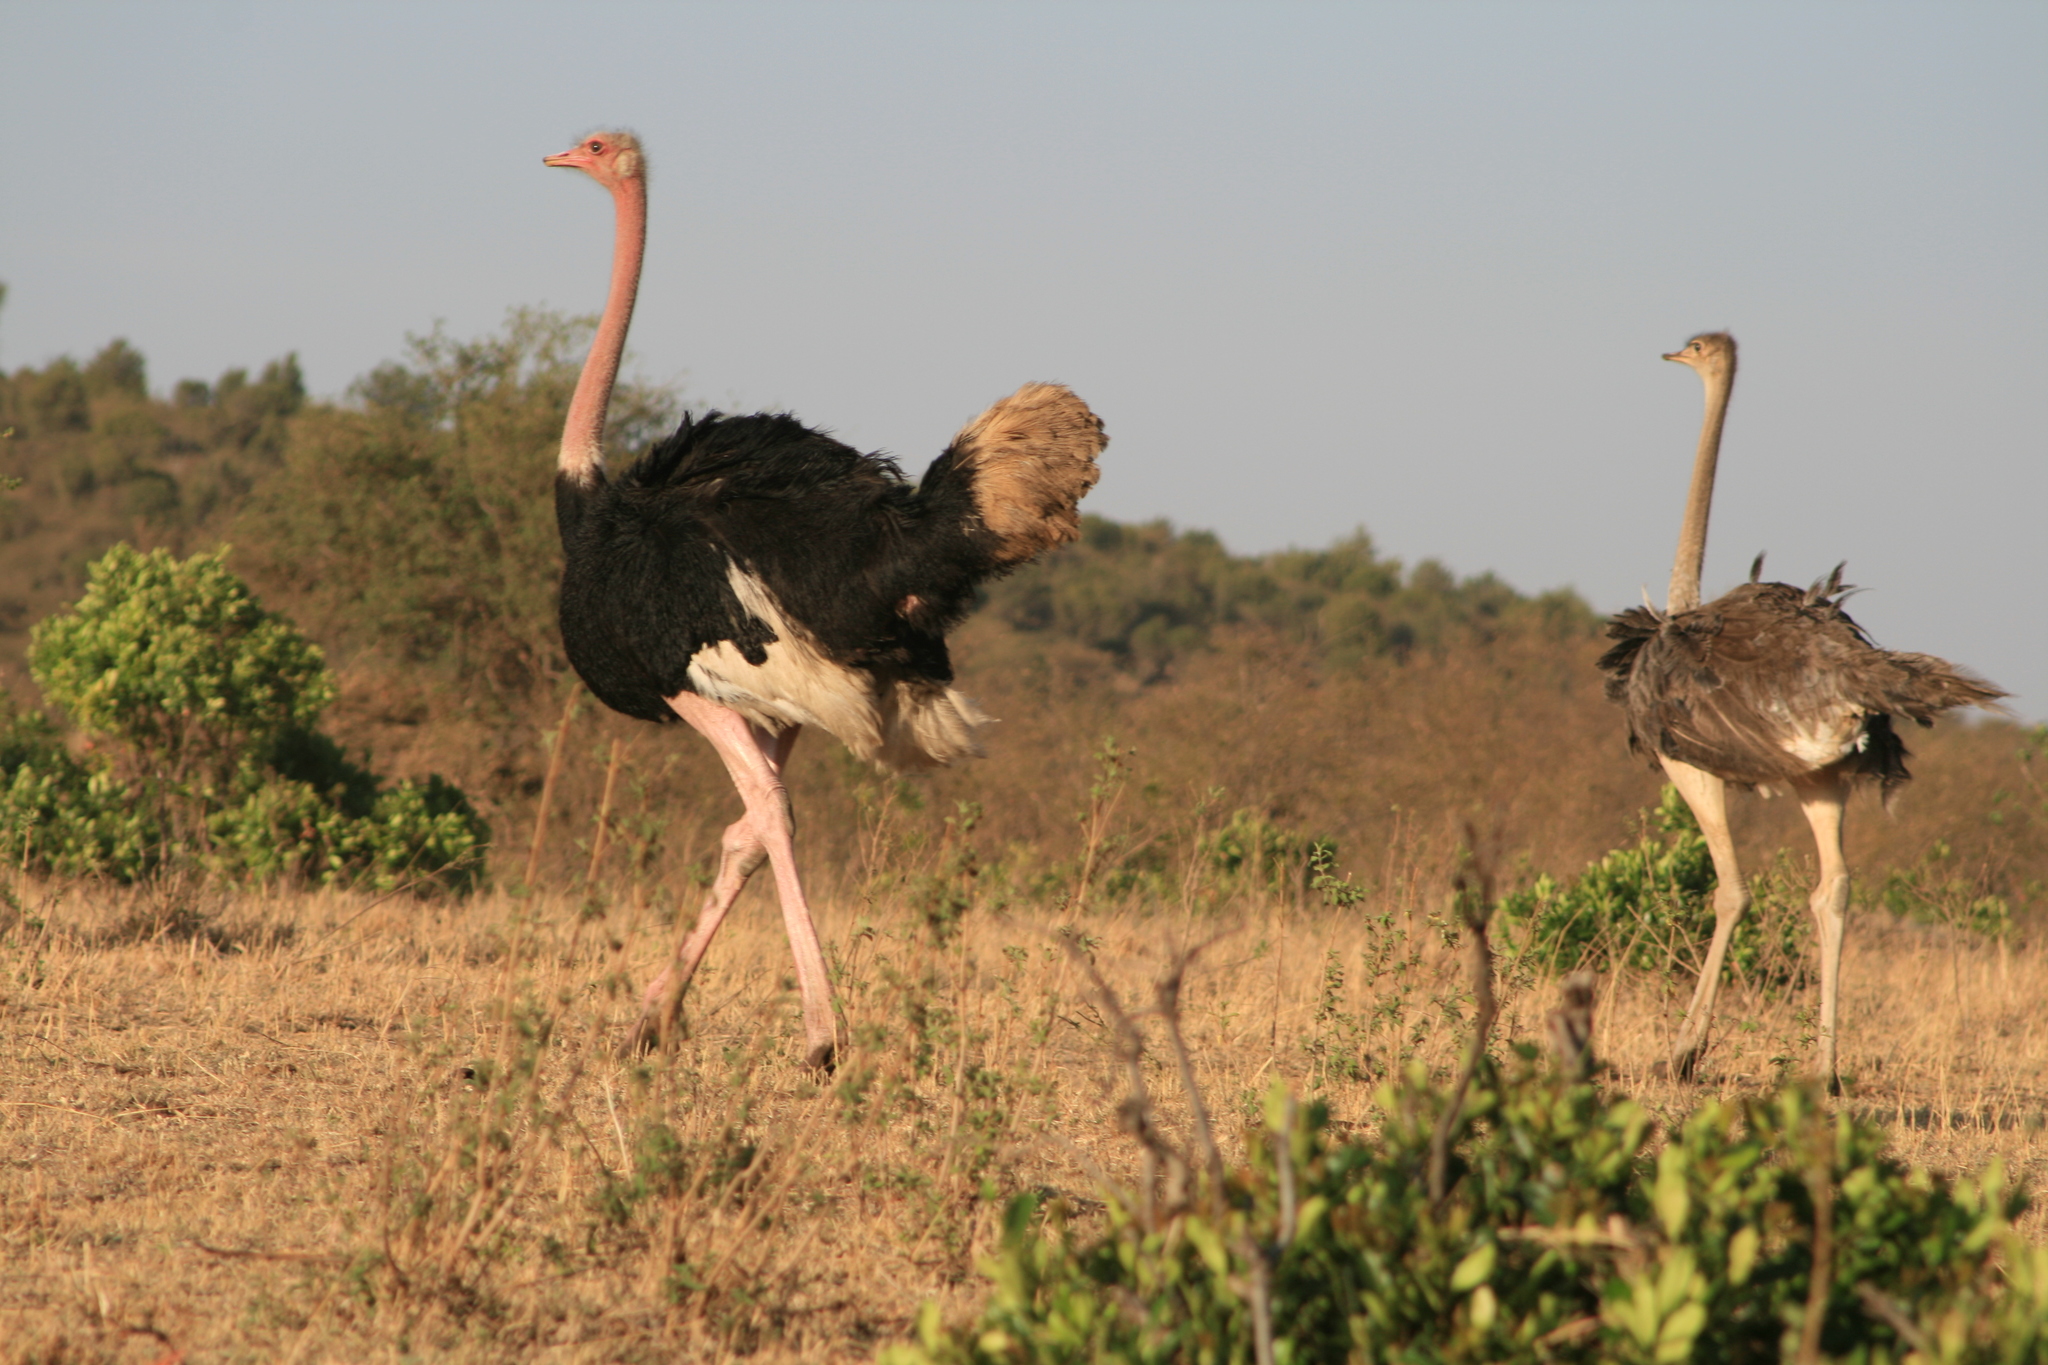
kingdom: Animalia
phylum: Chordata
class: Aves
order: Struthioniformes
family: Struthionidae
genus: Struthio
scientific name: Struthio camelus
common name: Common ostrich
